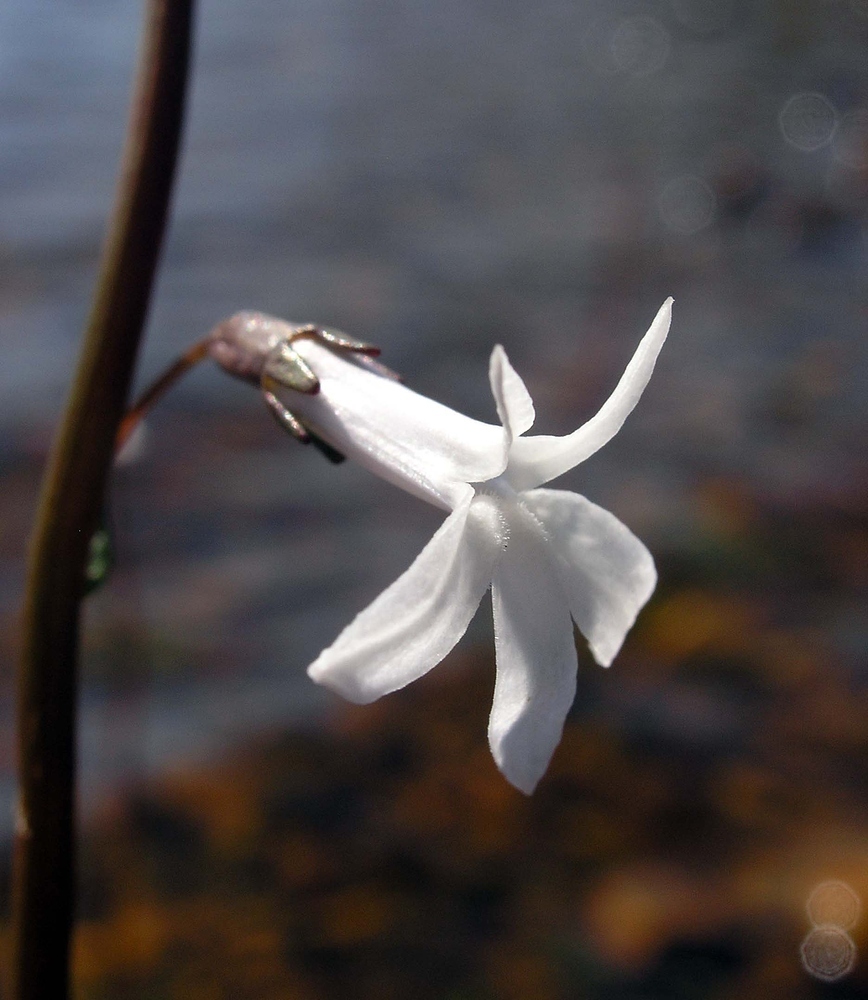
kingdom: Plantae
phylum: Tracheophyta
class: Magnoliopsida
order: Asterales
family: Campanulaceae
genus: Lobelia
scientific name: Lobelia dortmanna
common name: Water lobelia
